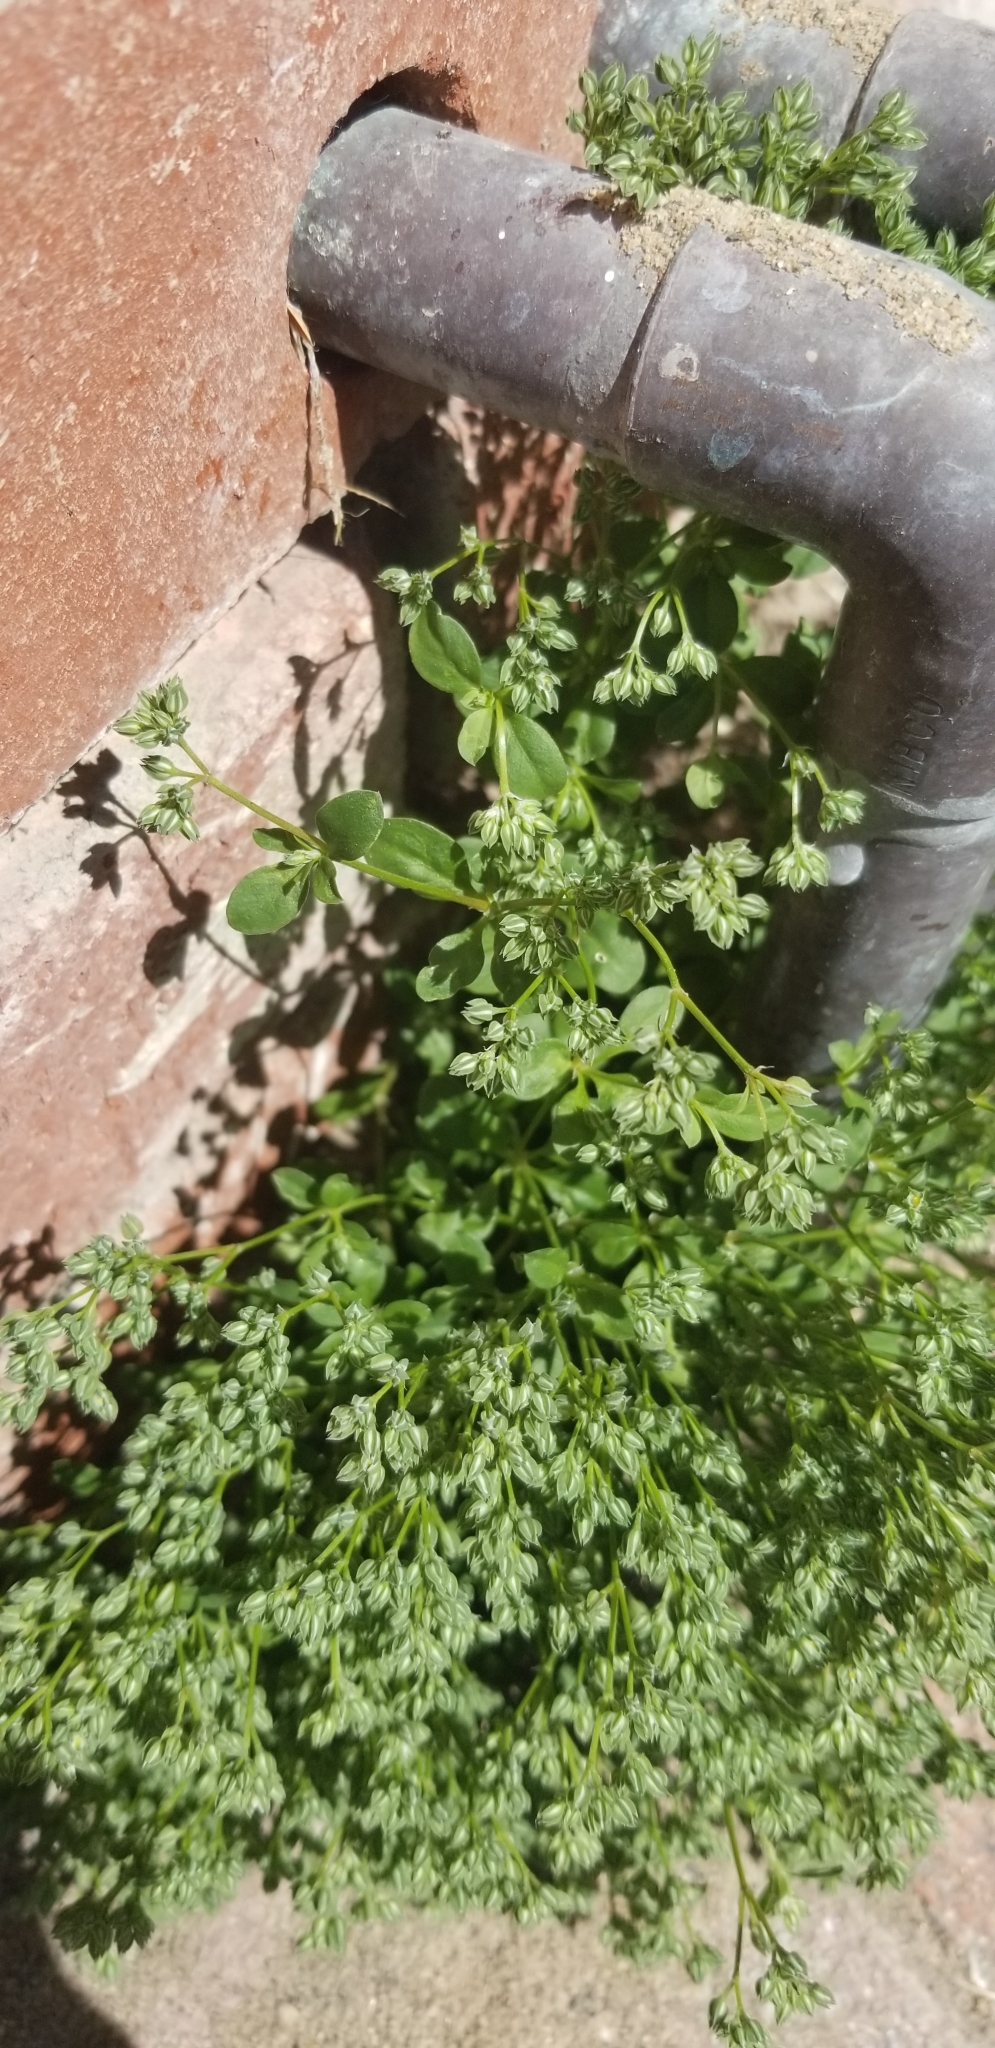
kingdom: Plantae
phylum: Tracheophyta
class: Magnoliopsida
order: Caryophyllales
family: Caryophyllaceae
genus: Polycarpon
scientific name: Polycarpon tetraphyllum
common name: Four-leaved all-seed
